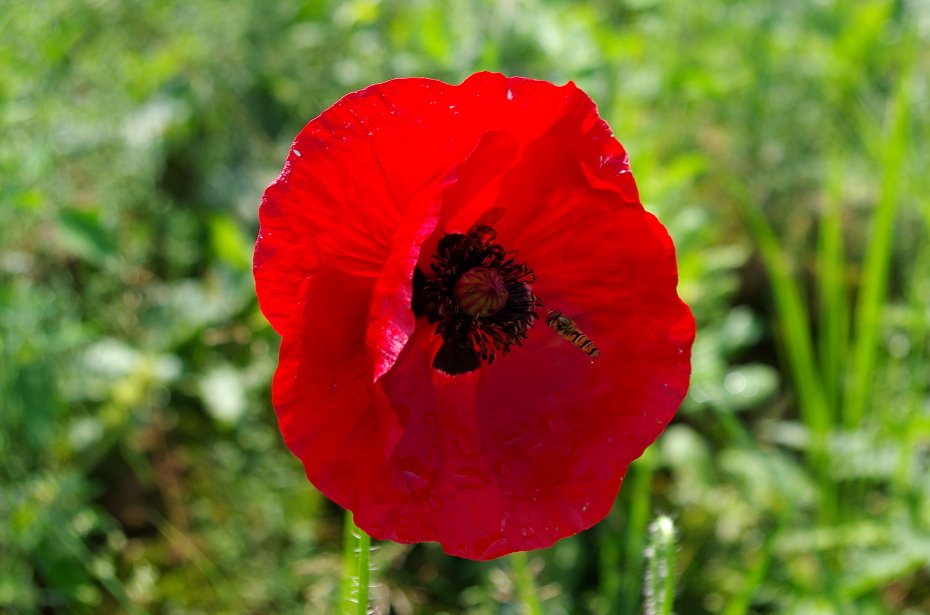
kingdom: Plantae
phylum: Tracheophyta
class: Magnoliopsida
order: Ranunculales
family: Papaveraceae
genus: Papaver
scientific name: Papaver rhoeas
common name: Corn poppy
